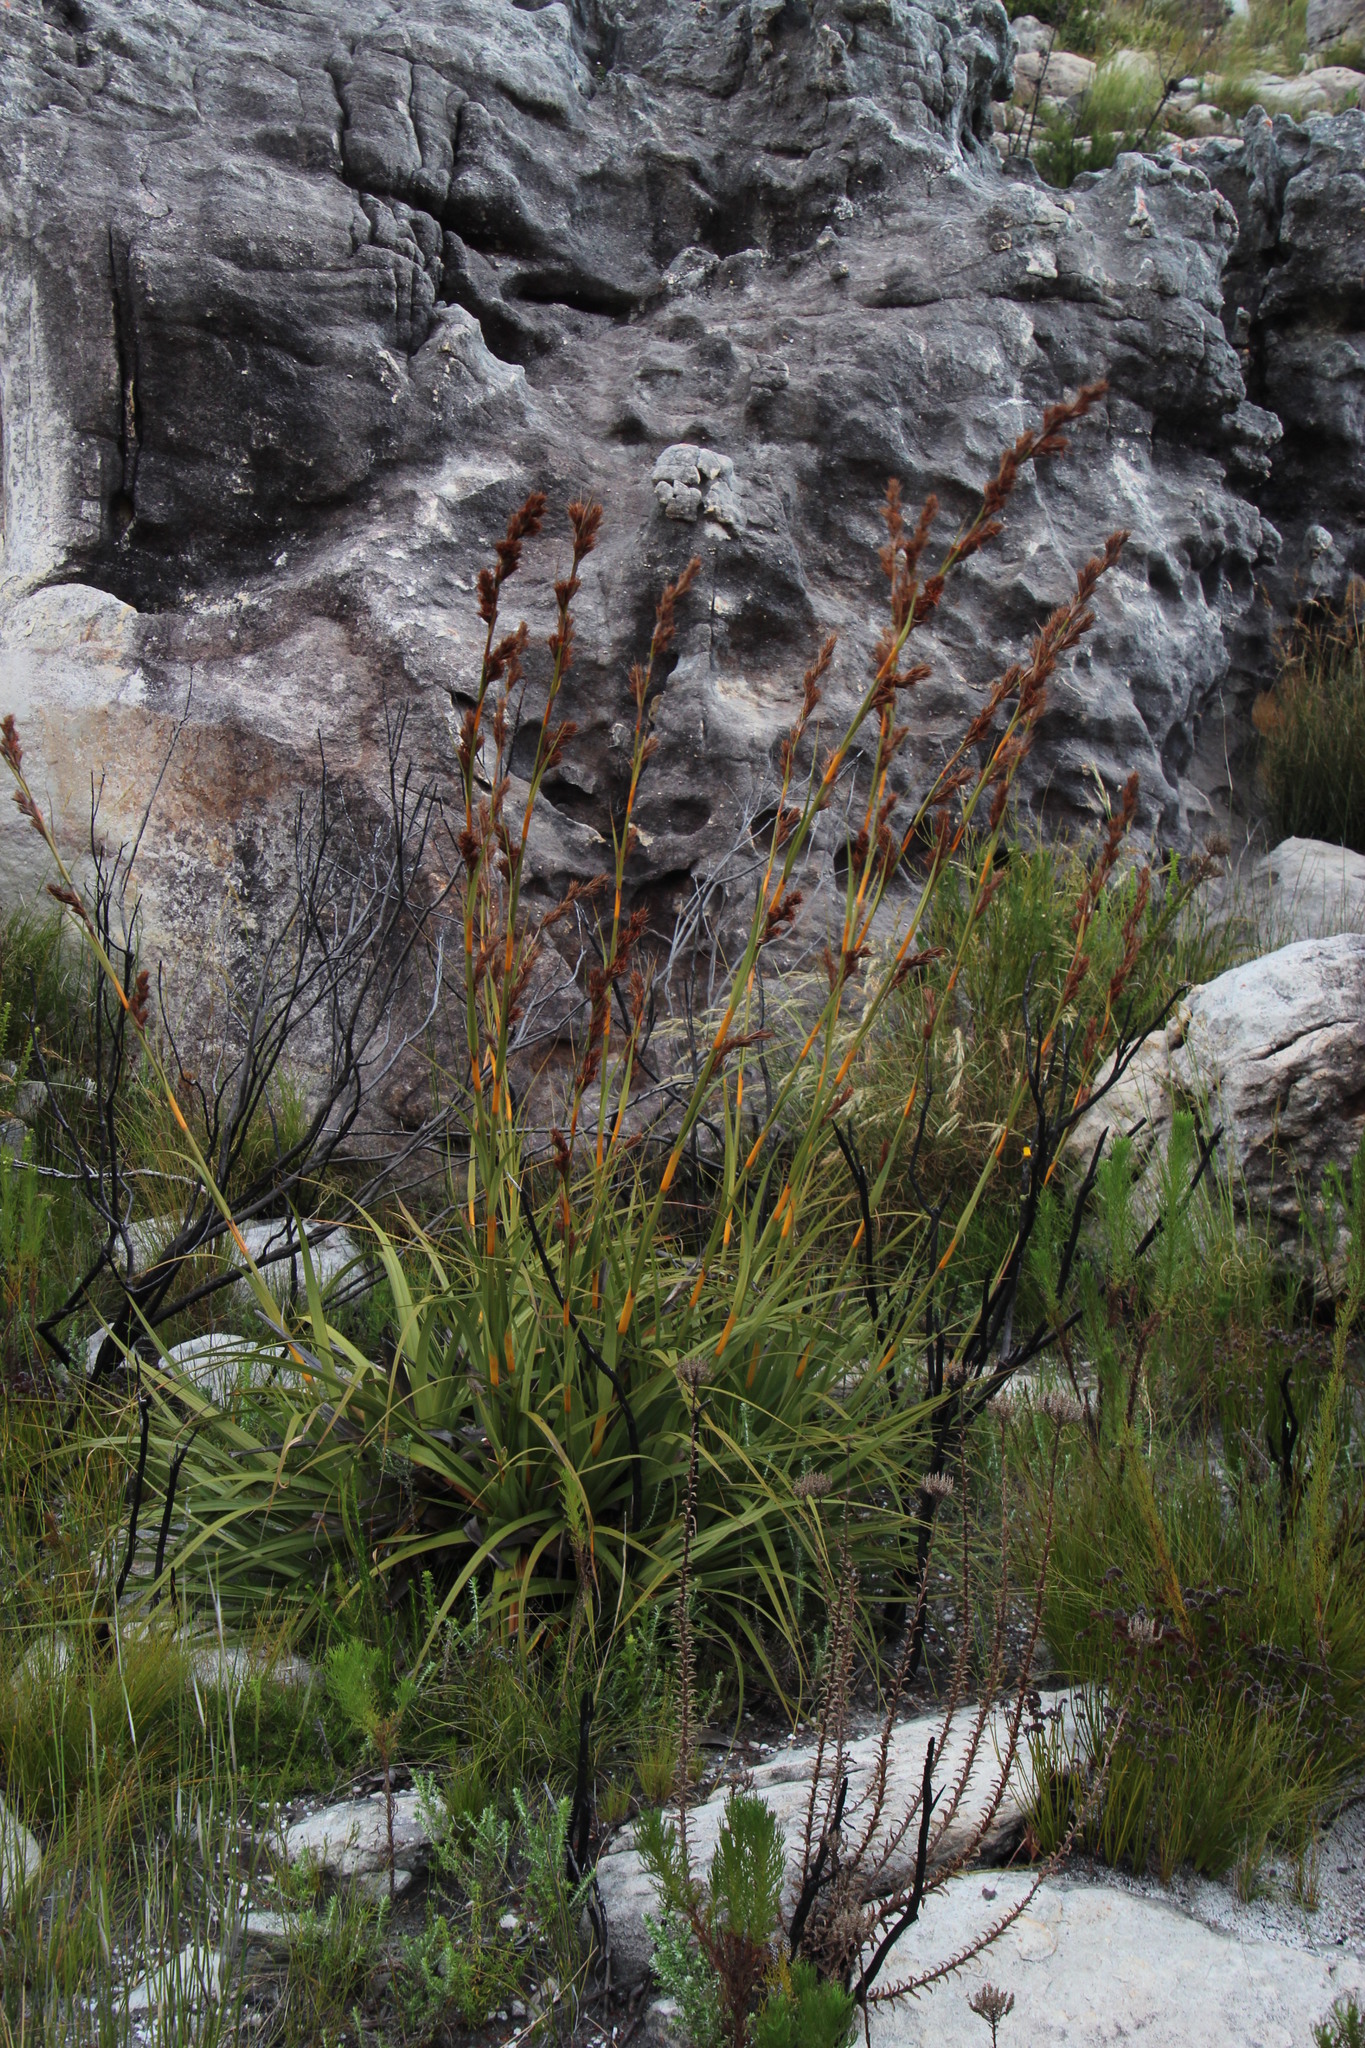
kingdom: Plantae
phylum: Tracheophyta
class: Liliopsida
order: Poales
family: Cyperaceae
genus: Tetraria
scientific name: Tetraria thermalis
